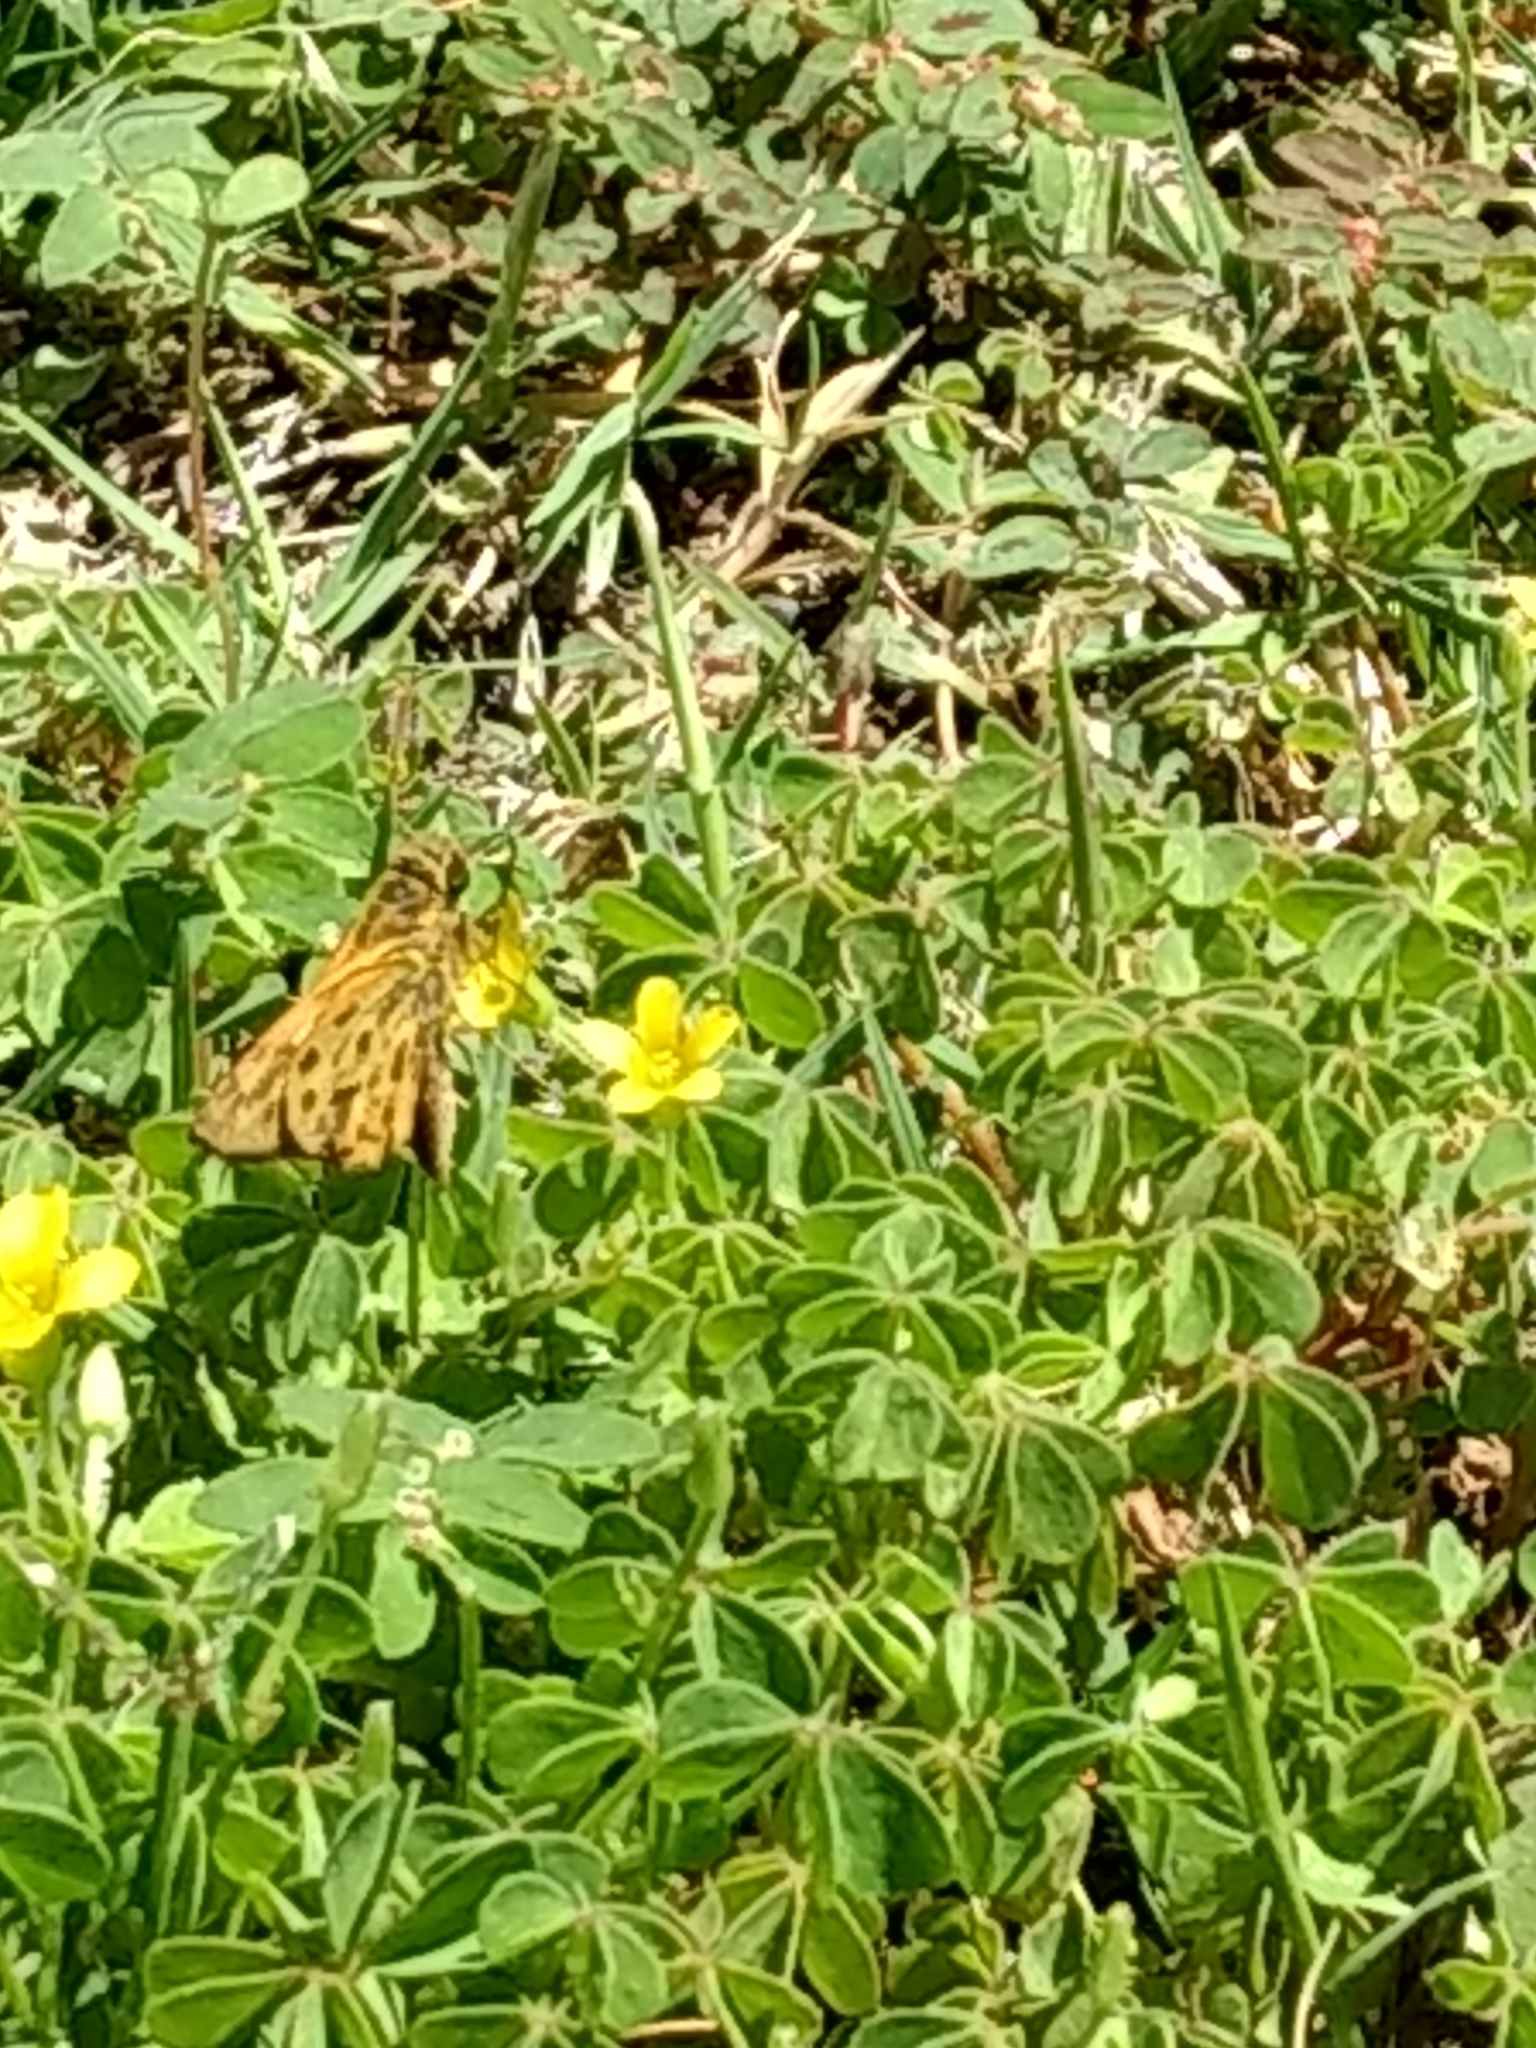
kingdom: Animalia
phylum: Arthropoda
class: Insecta
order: Lepidoptera
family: Hesperiidae
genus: Hylephila
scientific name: Hylephila phyleus
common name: Fiery skipper
